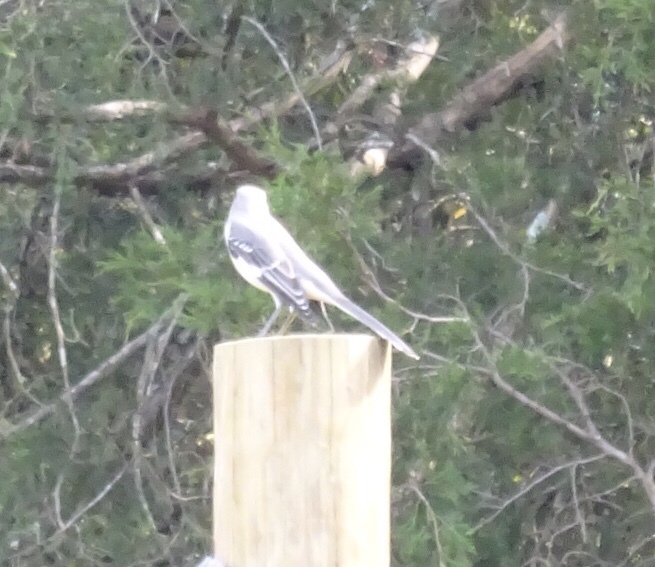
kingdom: Animalia
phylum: Chordata
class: Aves
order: Passeriformes
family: Mimidae
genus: Mimus
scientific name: Mimus polyglottos
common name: Northern mockingbird
